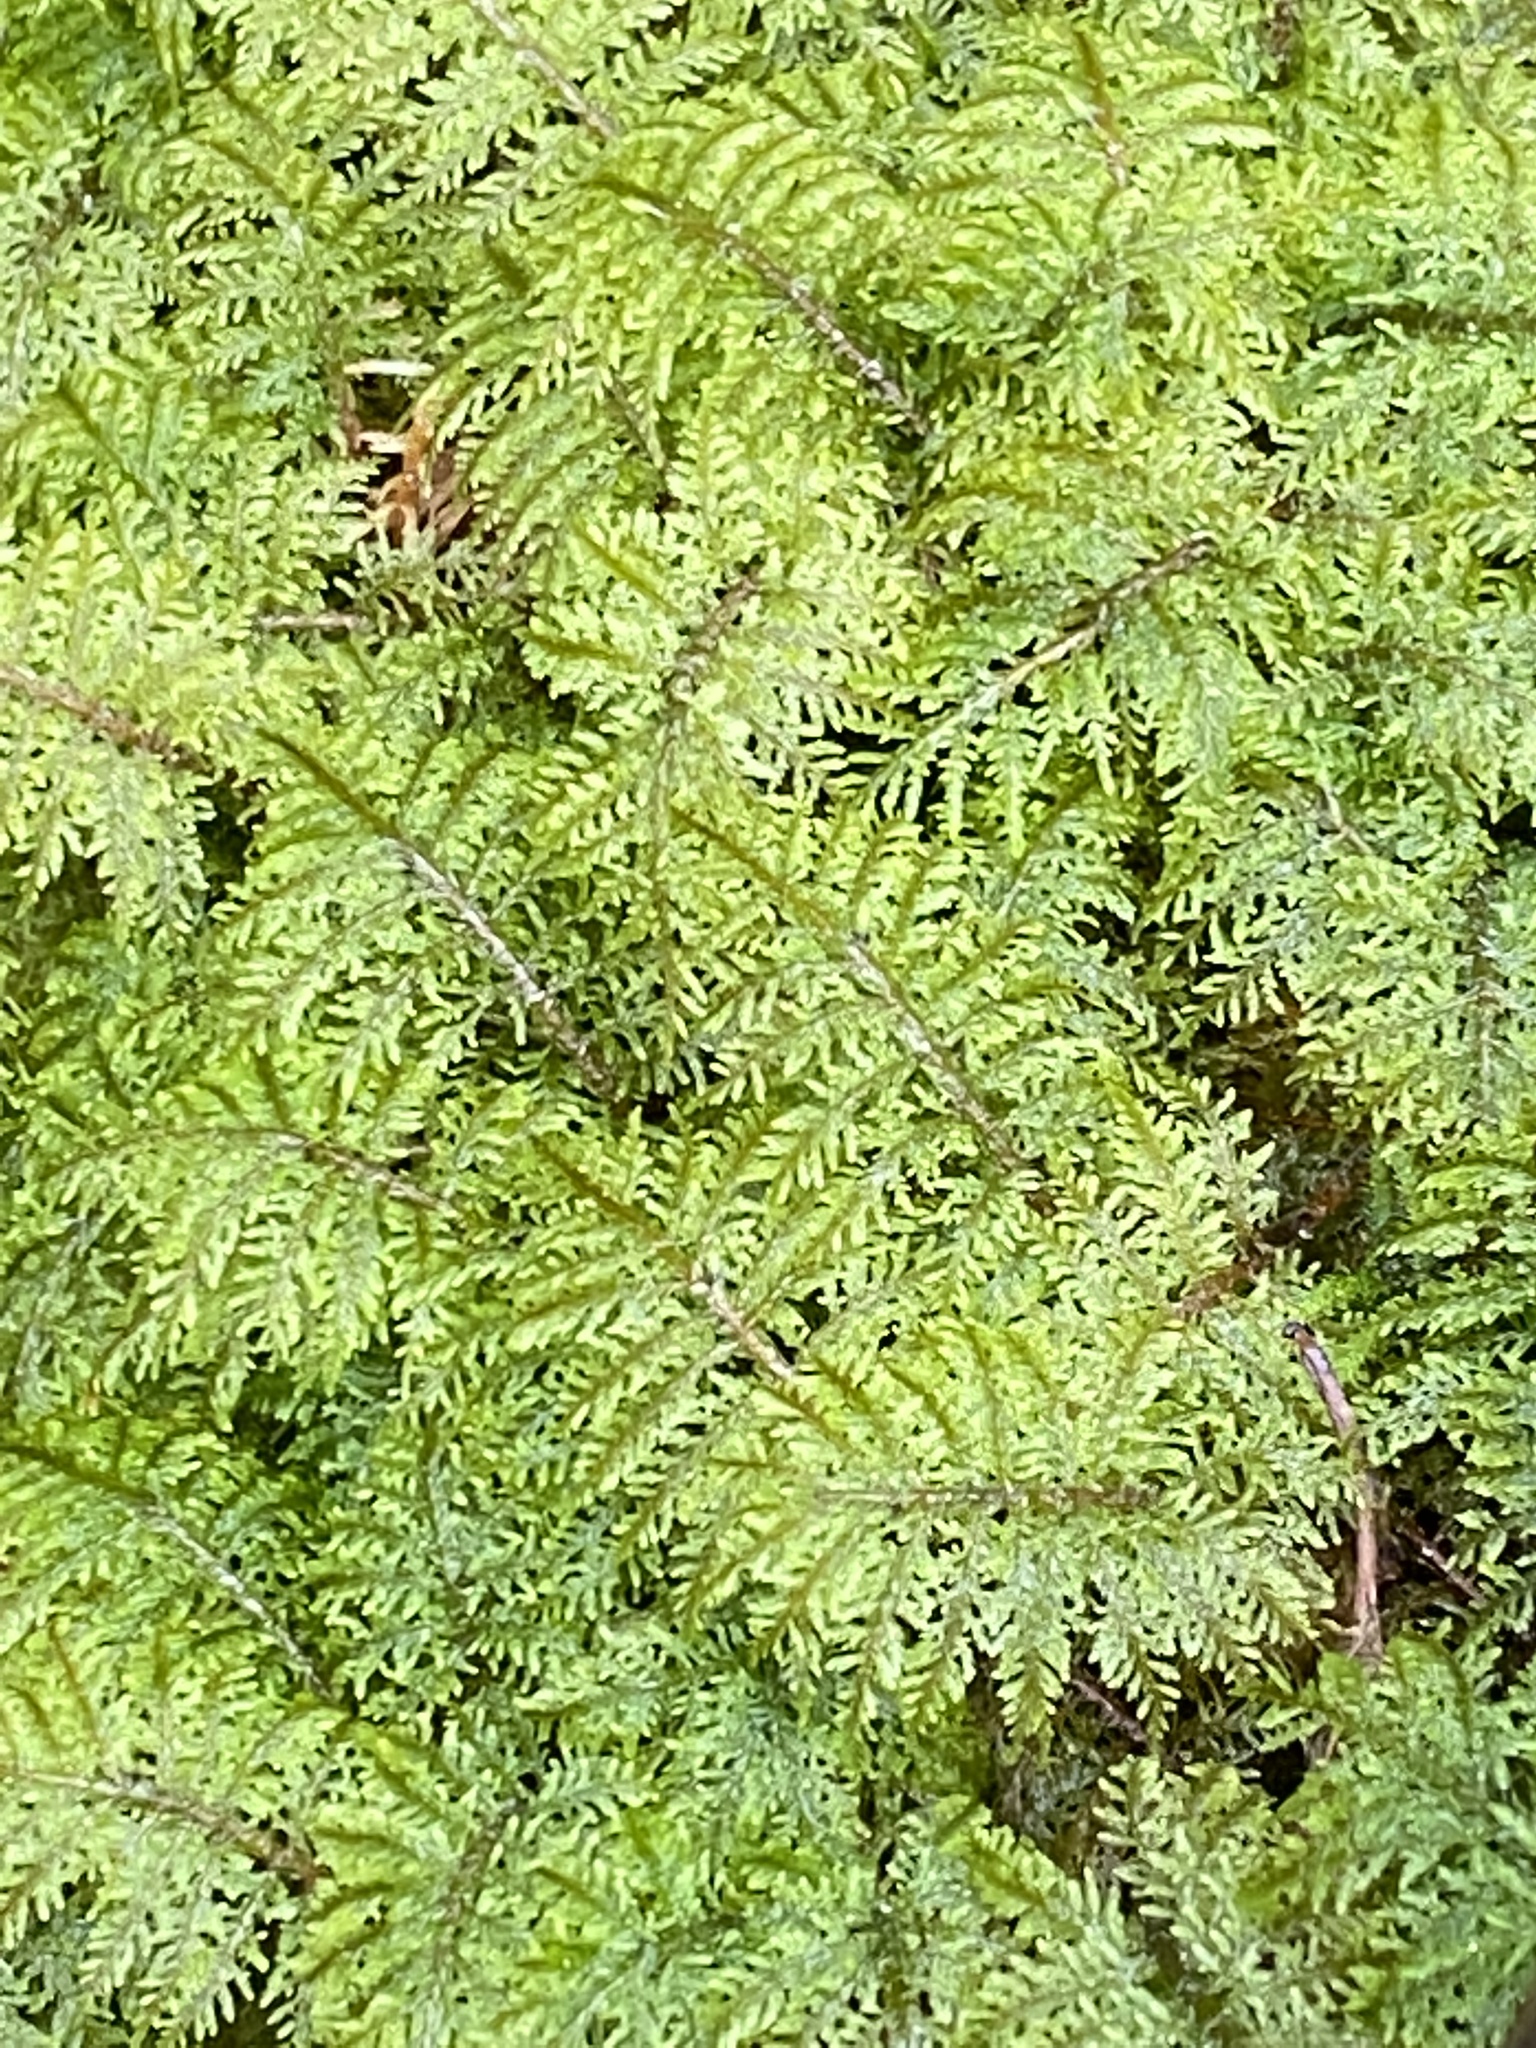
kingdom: Plantae
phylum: Bryophyta
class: Bryopsida
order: Hypnales
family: Hylocomiaceae
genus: Hylocomium
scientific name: Hylocomium splendens
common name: Stairstep moss
